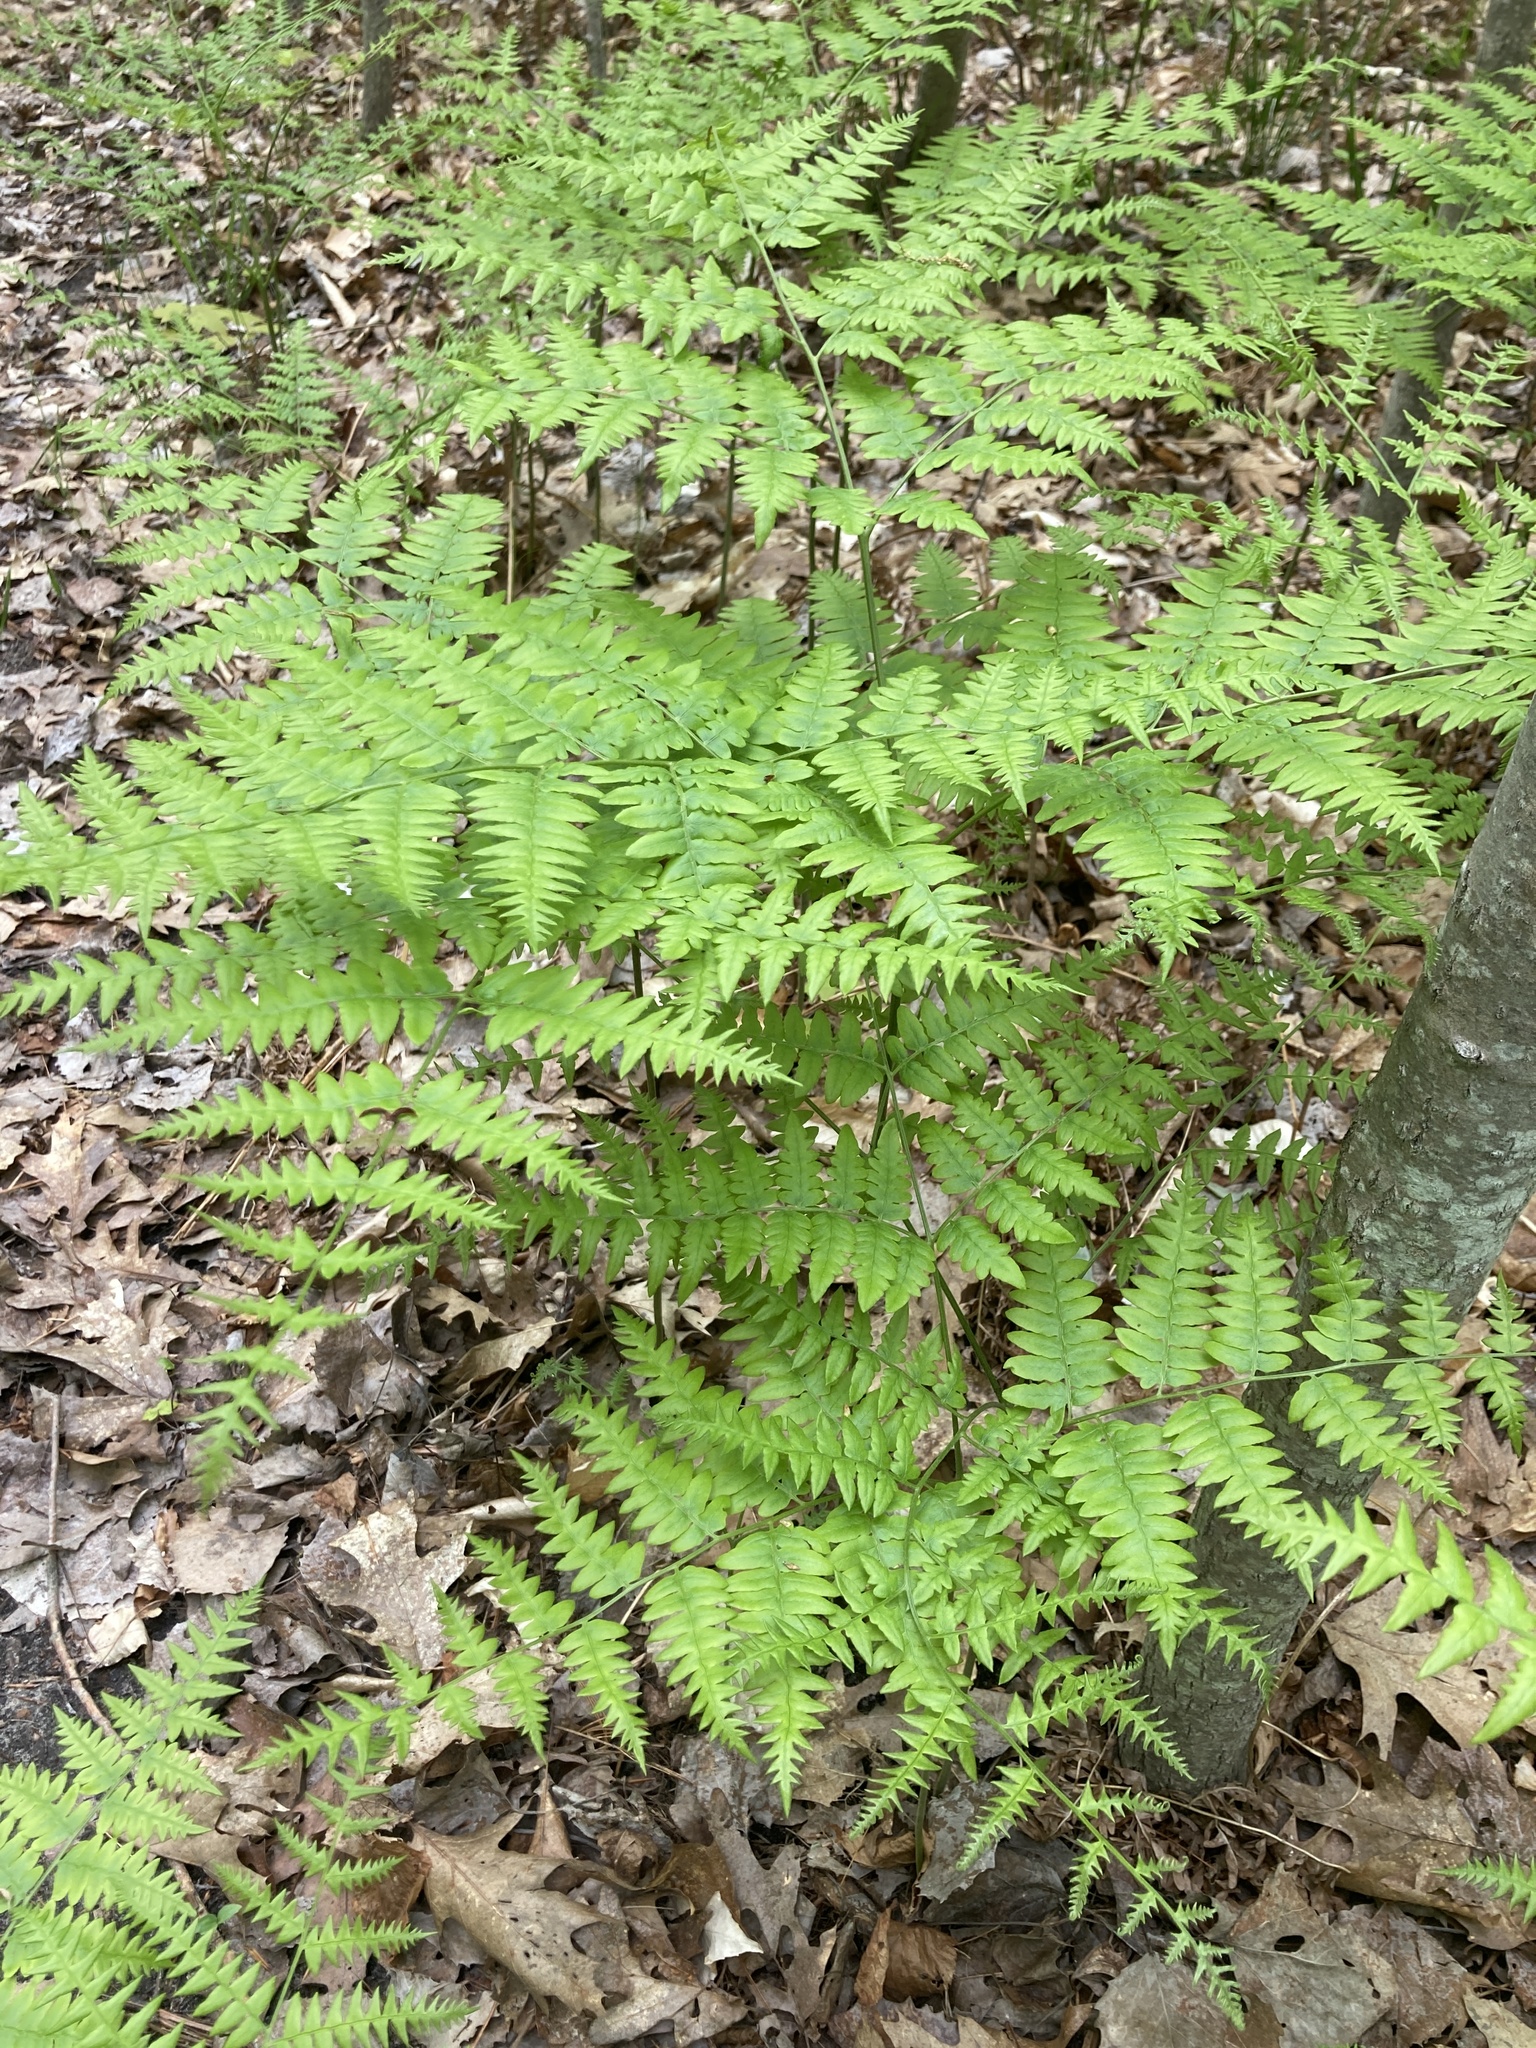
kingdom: Plantae
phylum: Tracheophyta
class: Polypodiopsida
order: Polypodiales
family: Dennstaedtiaceae
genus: Pteridium
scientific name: Pteridium aquilinum
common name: Bracken
